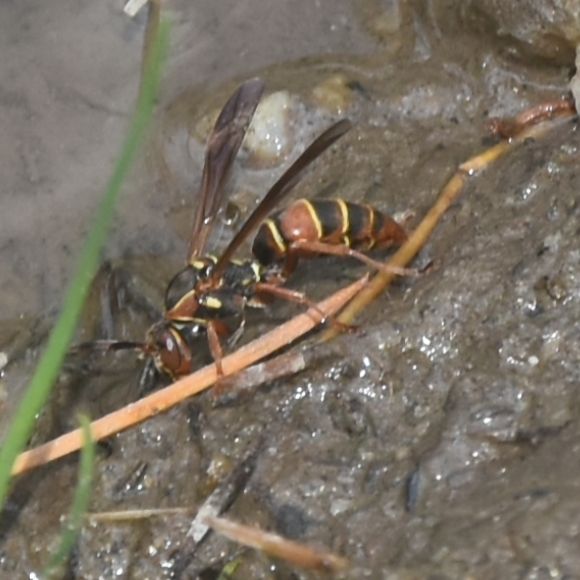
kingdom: Animalia
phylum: Arthropoda
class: Insecta
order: Hymenoptera
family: Eumenidae
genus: Knemodynerus
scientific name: Knemodynerus multimaculatus
